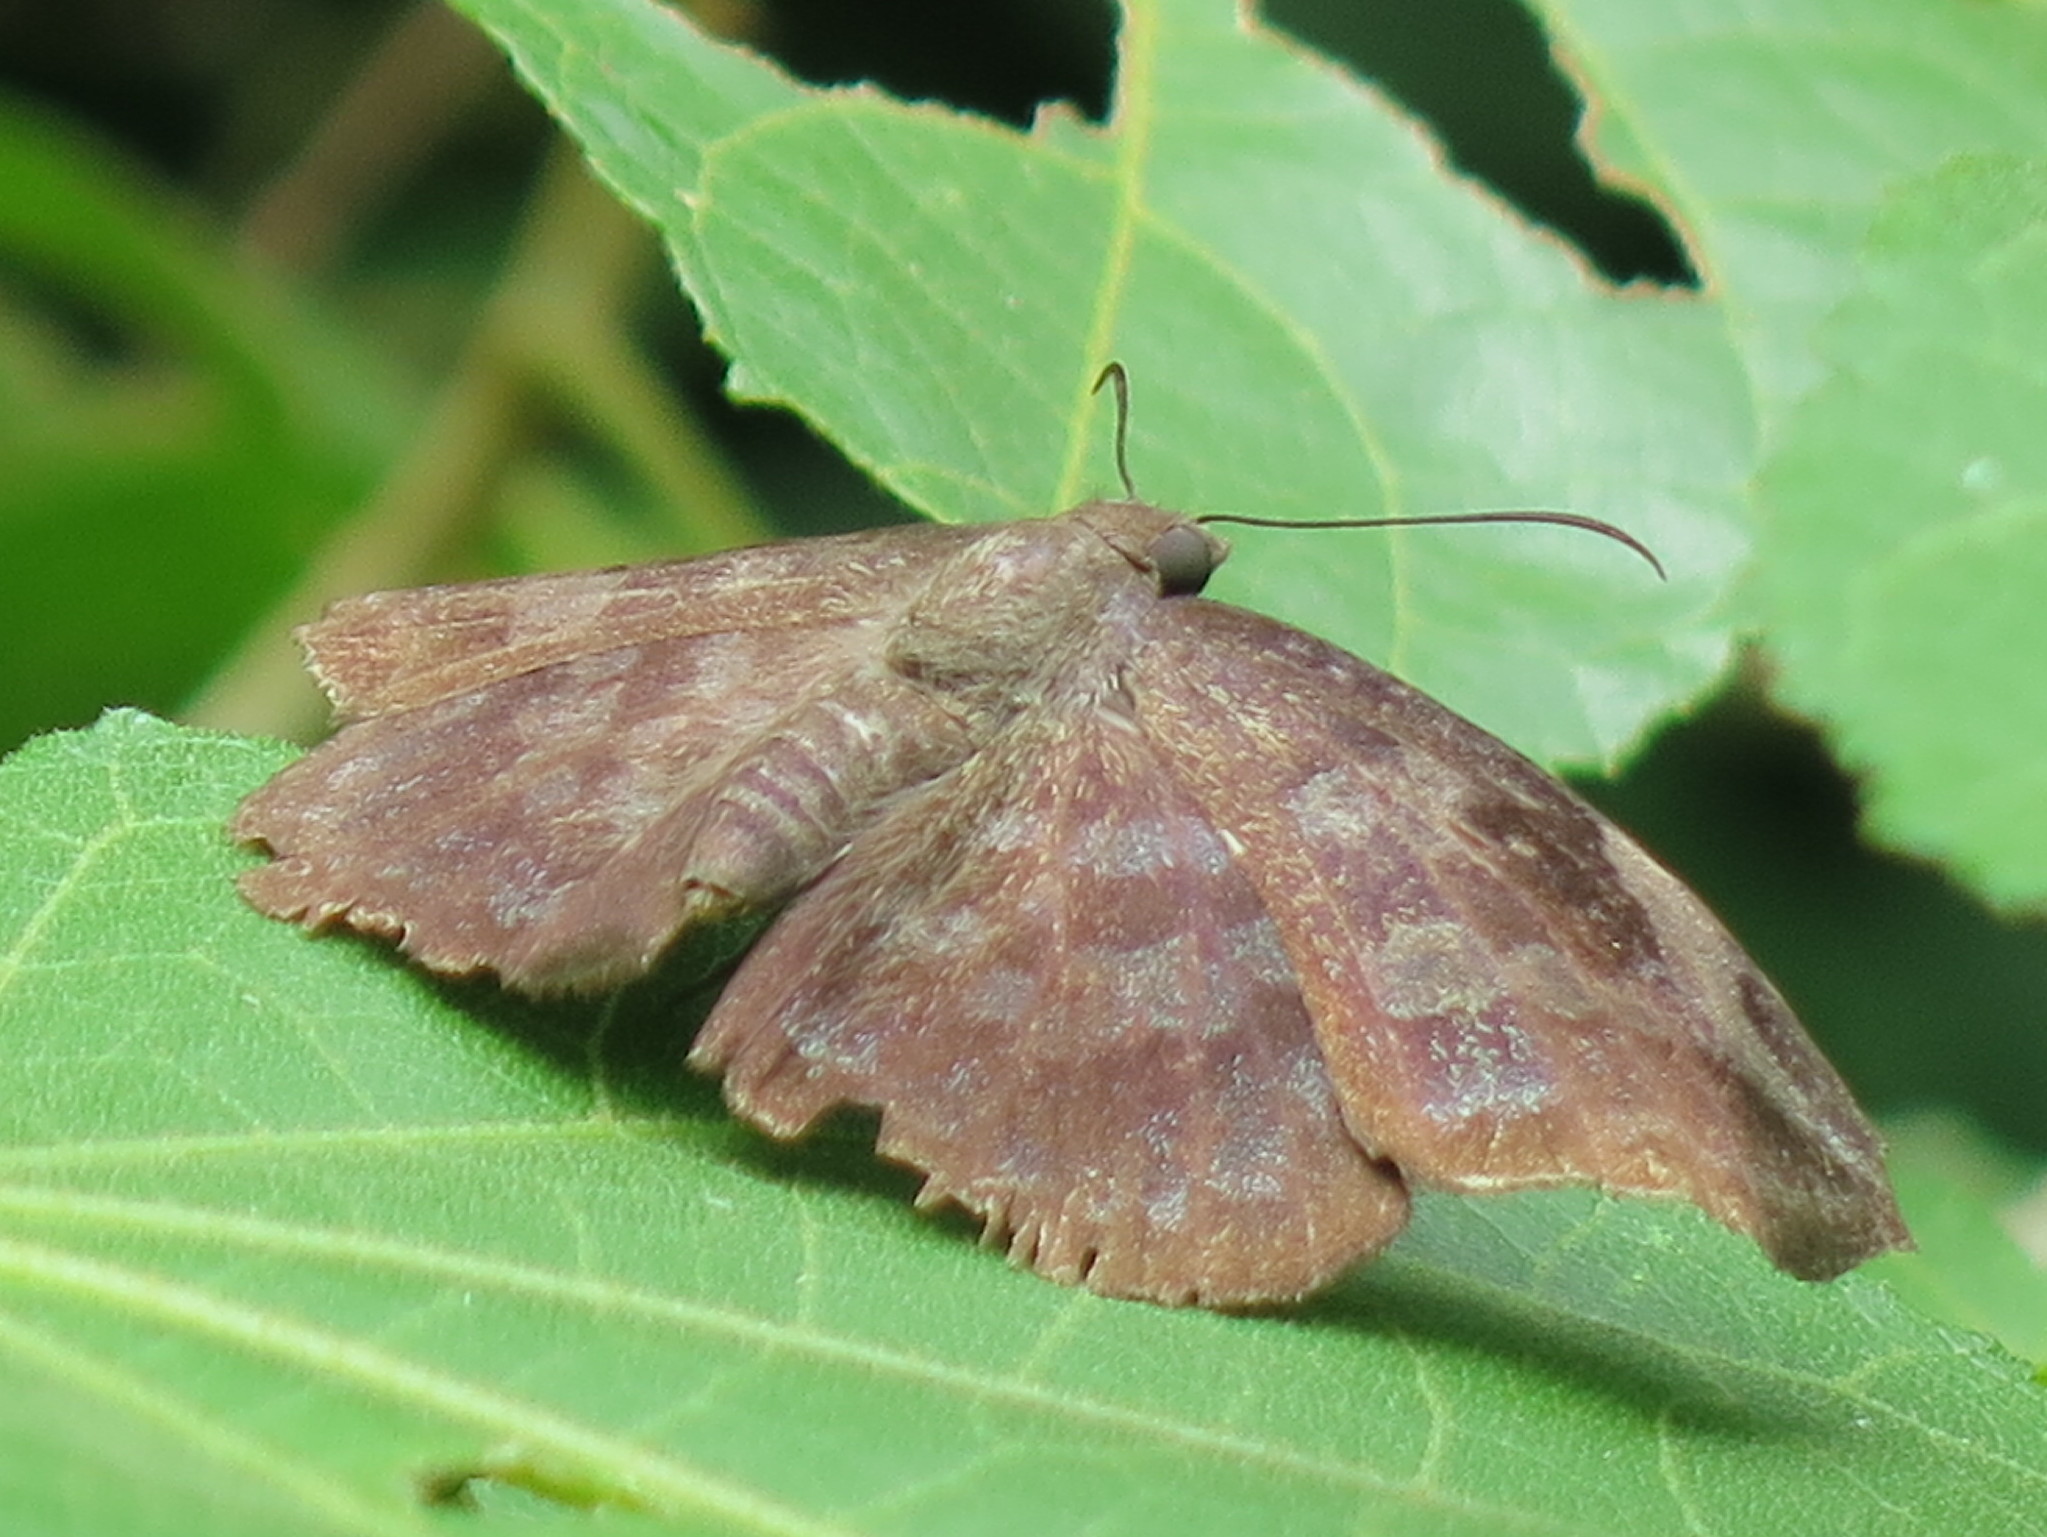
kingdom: Animalia
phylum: Arthropoda
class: Insecta
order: Lepidoptera
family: Hesperiidae
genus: Achlyodes
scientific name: Achlyodes thraso
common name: Sickle-winged skipper
